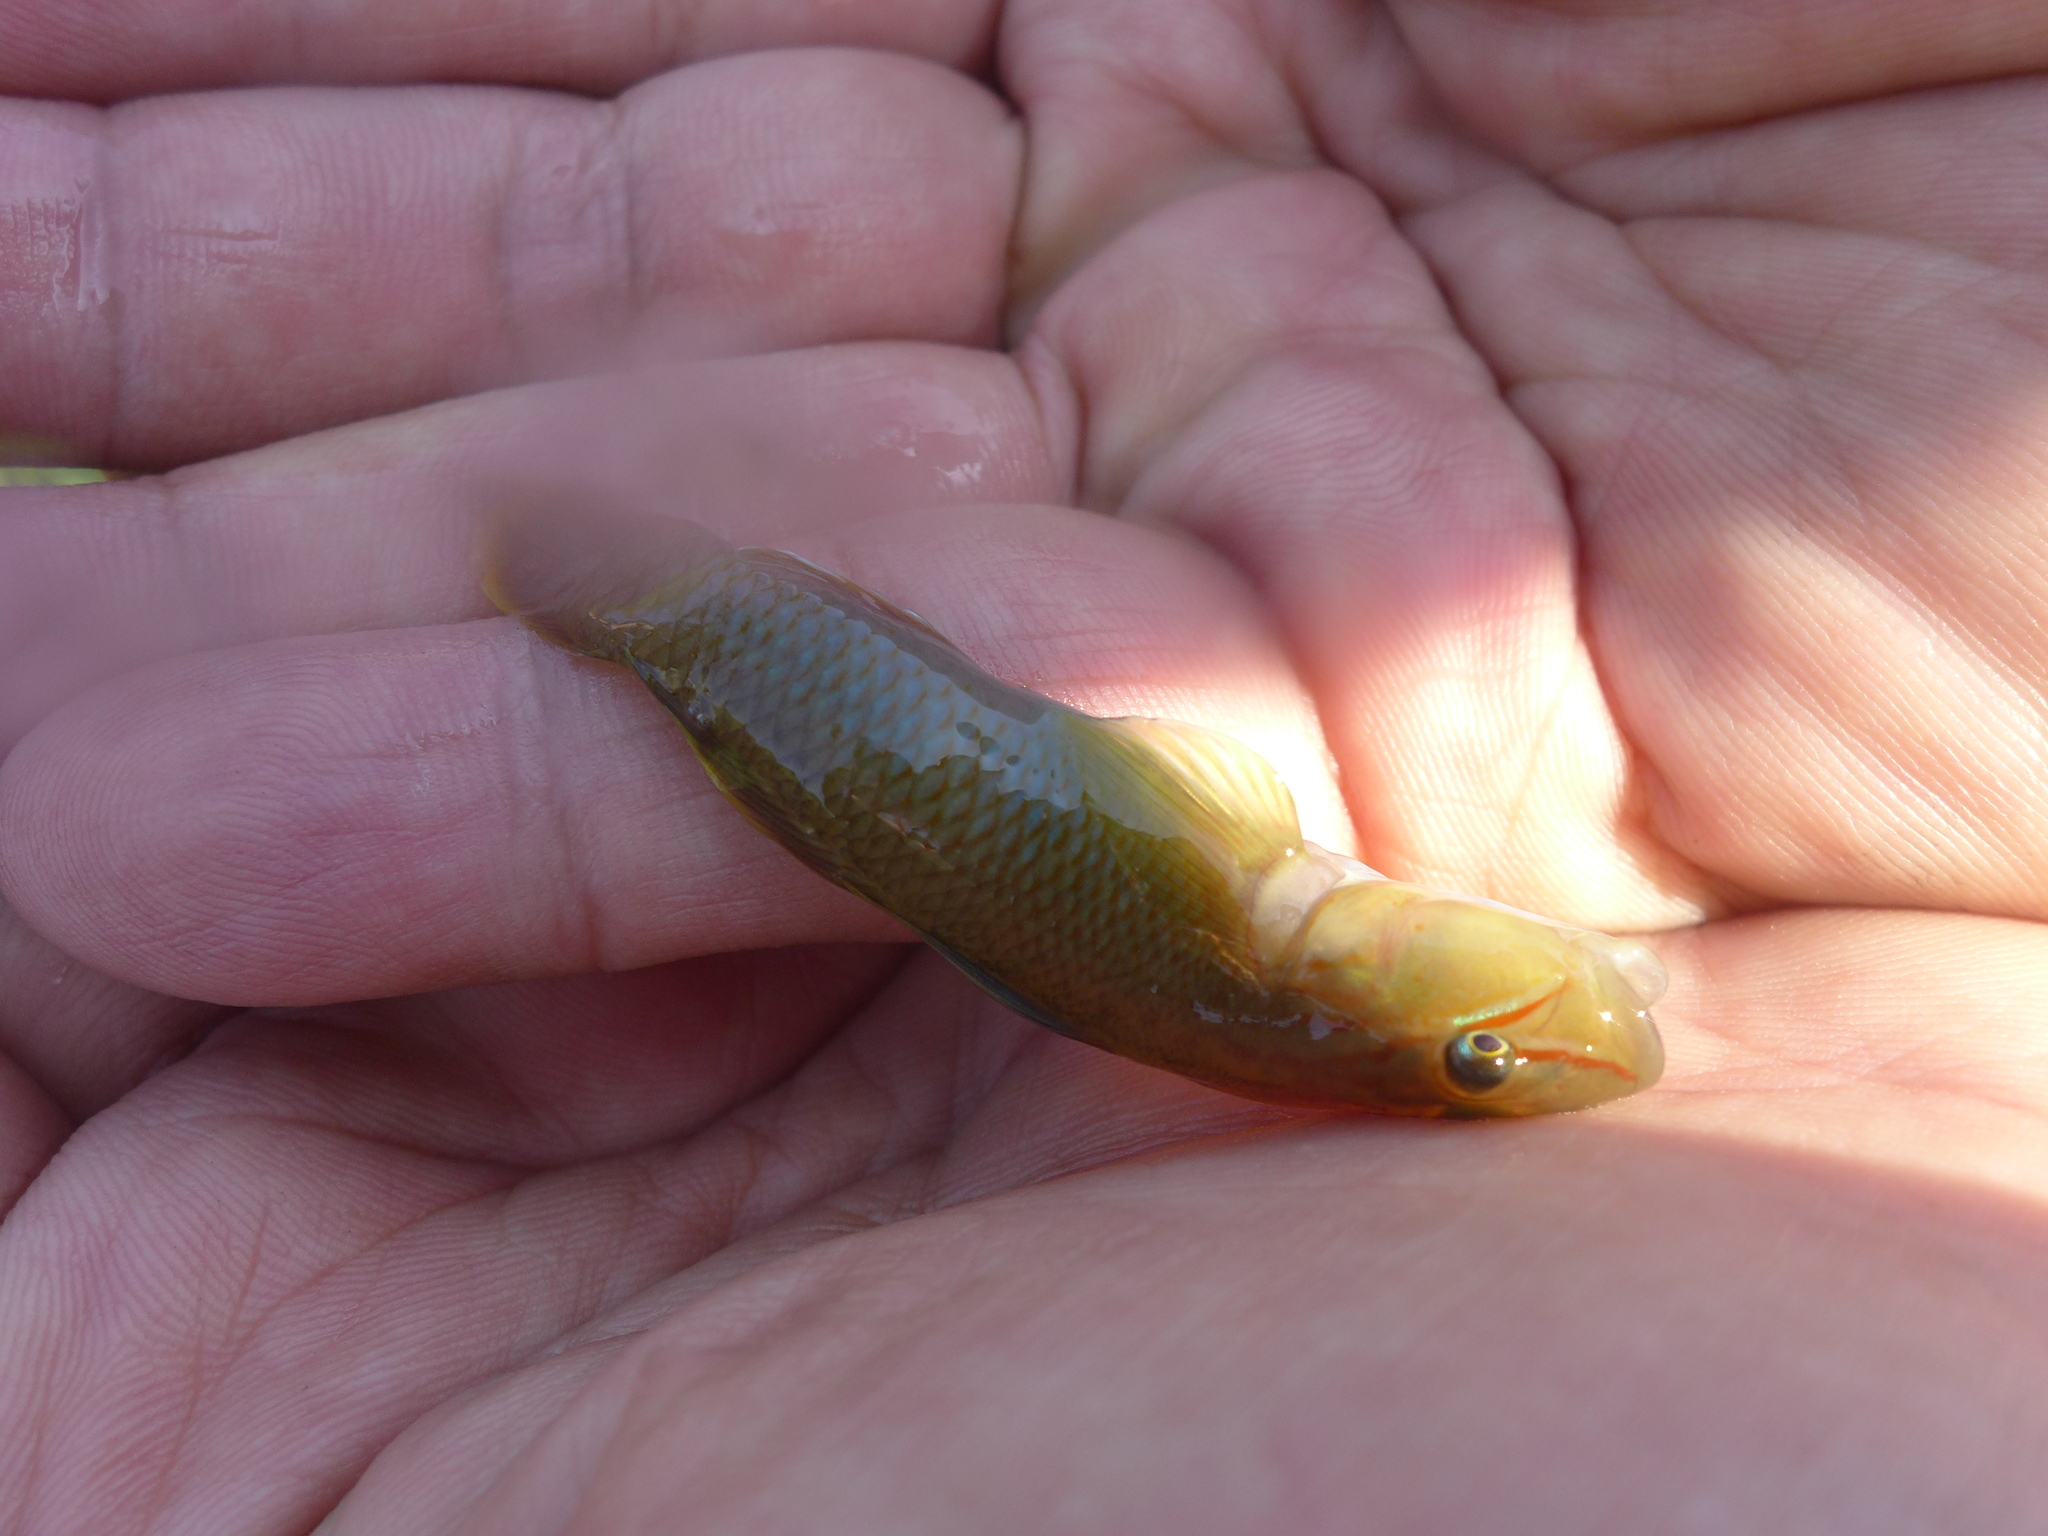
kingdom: Animalia
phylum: Chordata
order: Perciformes
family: Gobiidae
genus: Rhinogobius
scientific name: Rhinogobius candidianus
